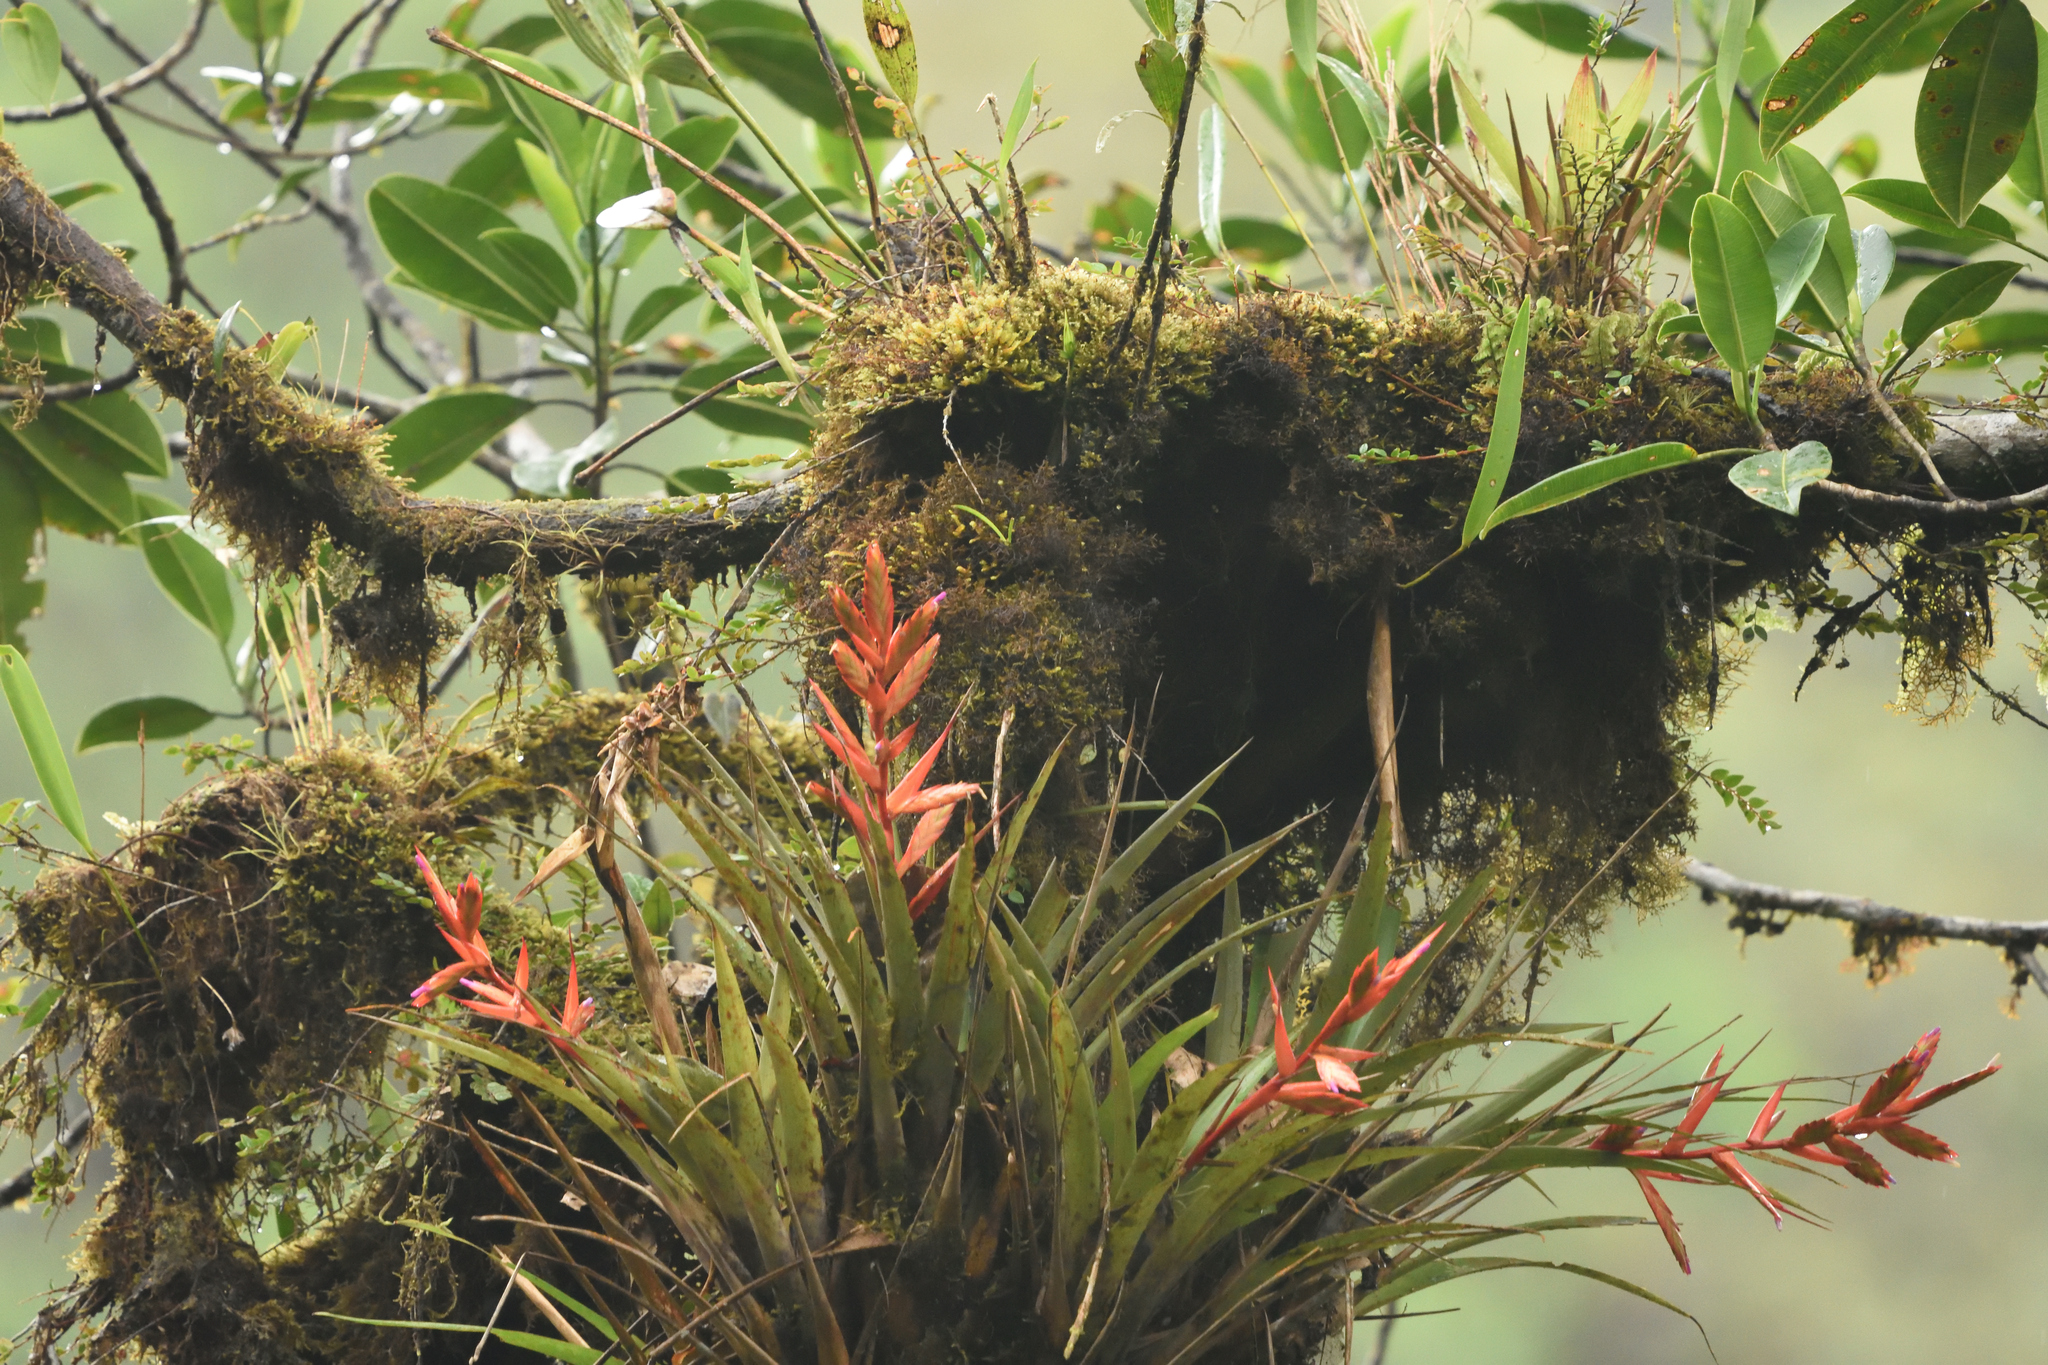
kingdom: Plantae
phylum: Tracheophyta
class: Liliopsida
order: Poales
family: Bromeliaceae
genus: Tillandsia
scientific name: Tillandsia confinis
